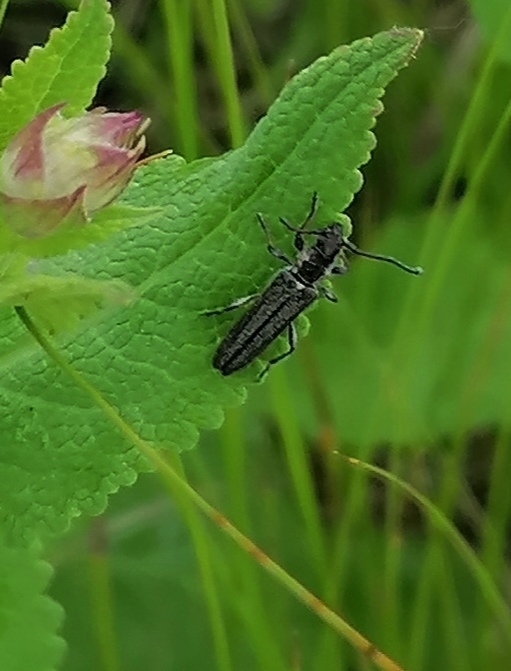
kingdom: Animalia
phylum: Arthropoda
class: Insecta
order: Coleoptera
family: Cerambycidae
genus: Deilus
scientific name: Deilus fugax
